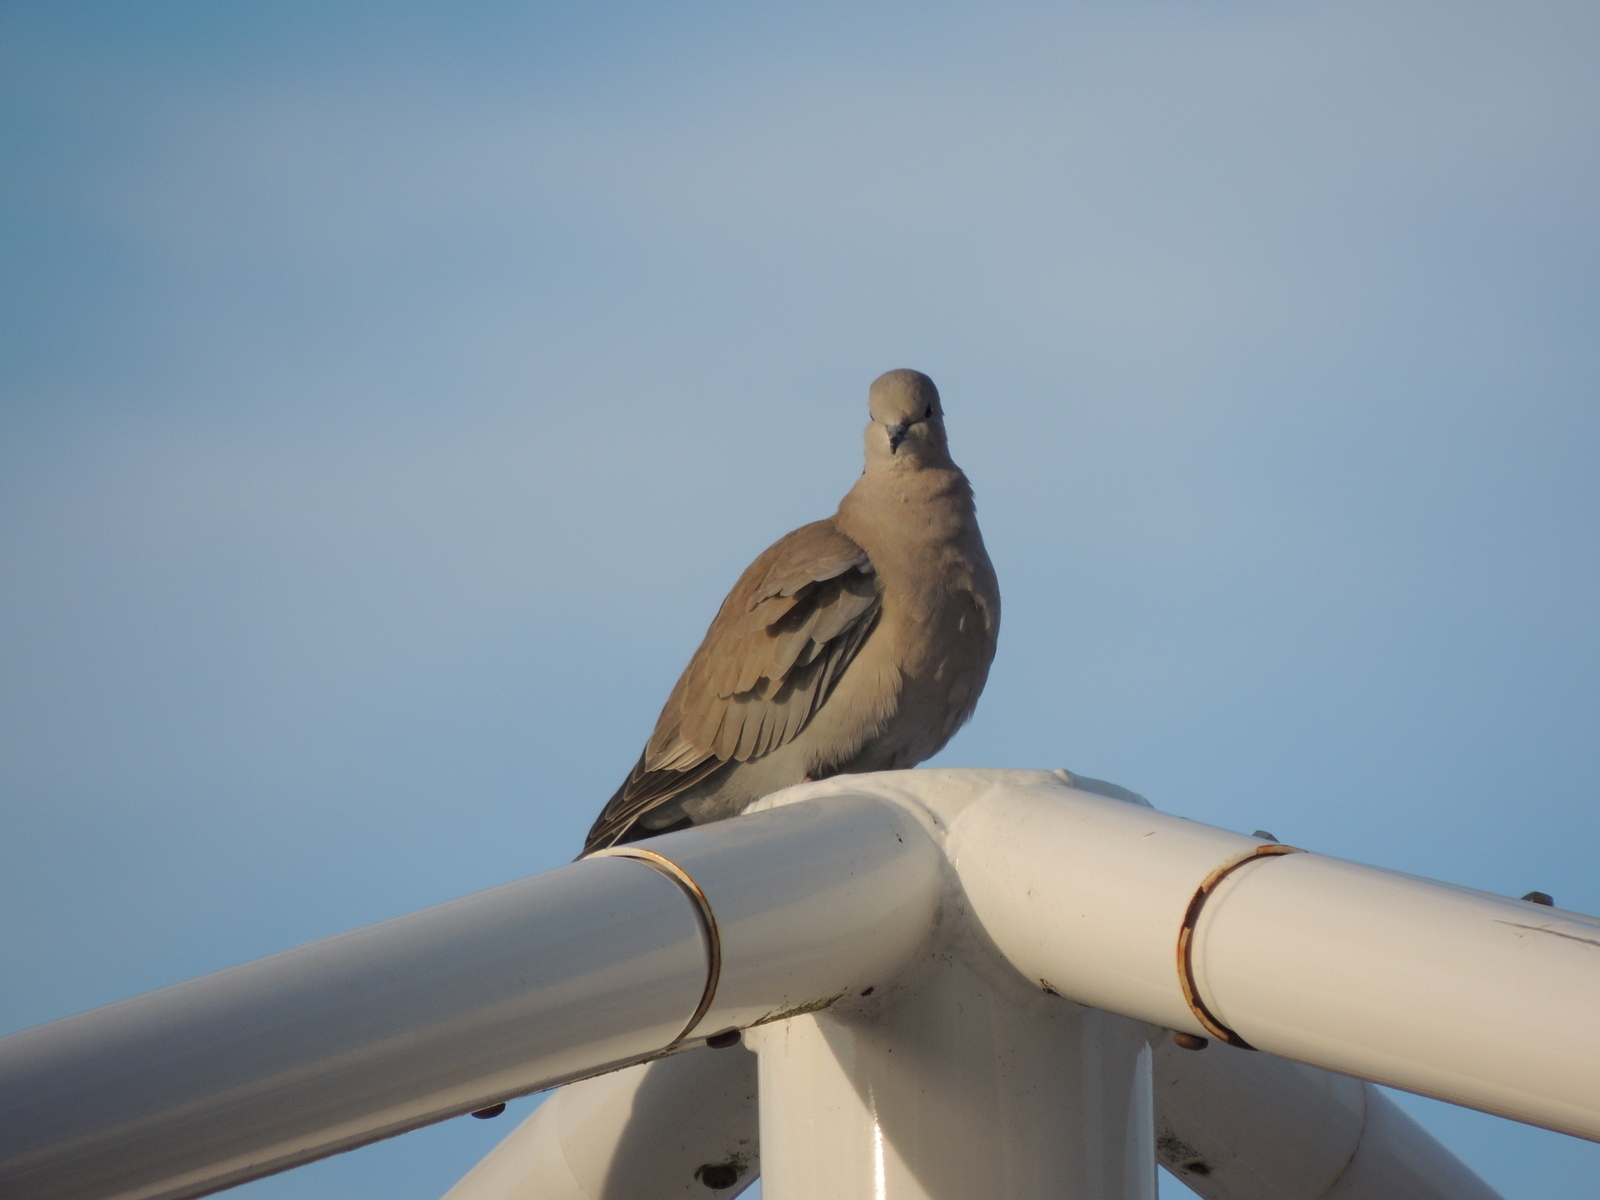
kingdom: Animalia
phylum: Chordata
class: Aves
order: Columbiformes
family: Columbidae
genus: Streptopelia
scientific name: Streptopelia decaocto
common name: Eurasian collared dove
